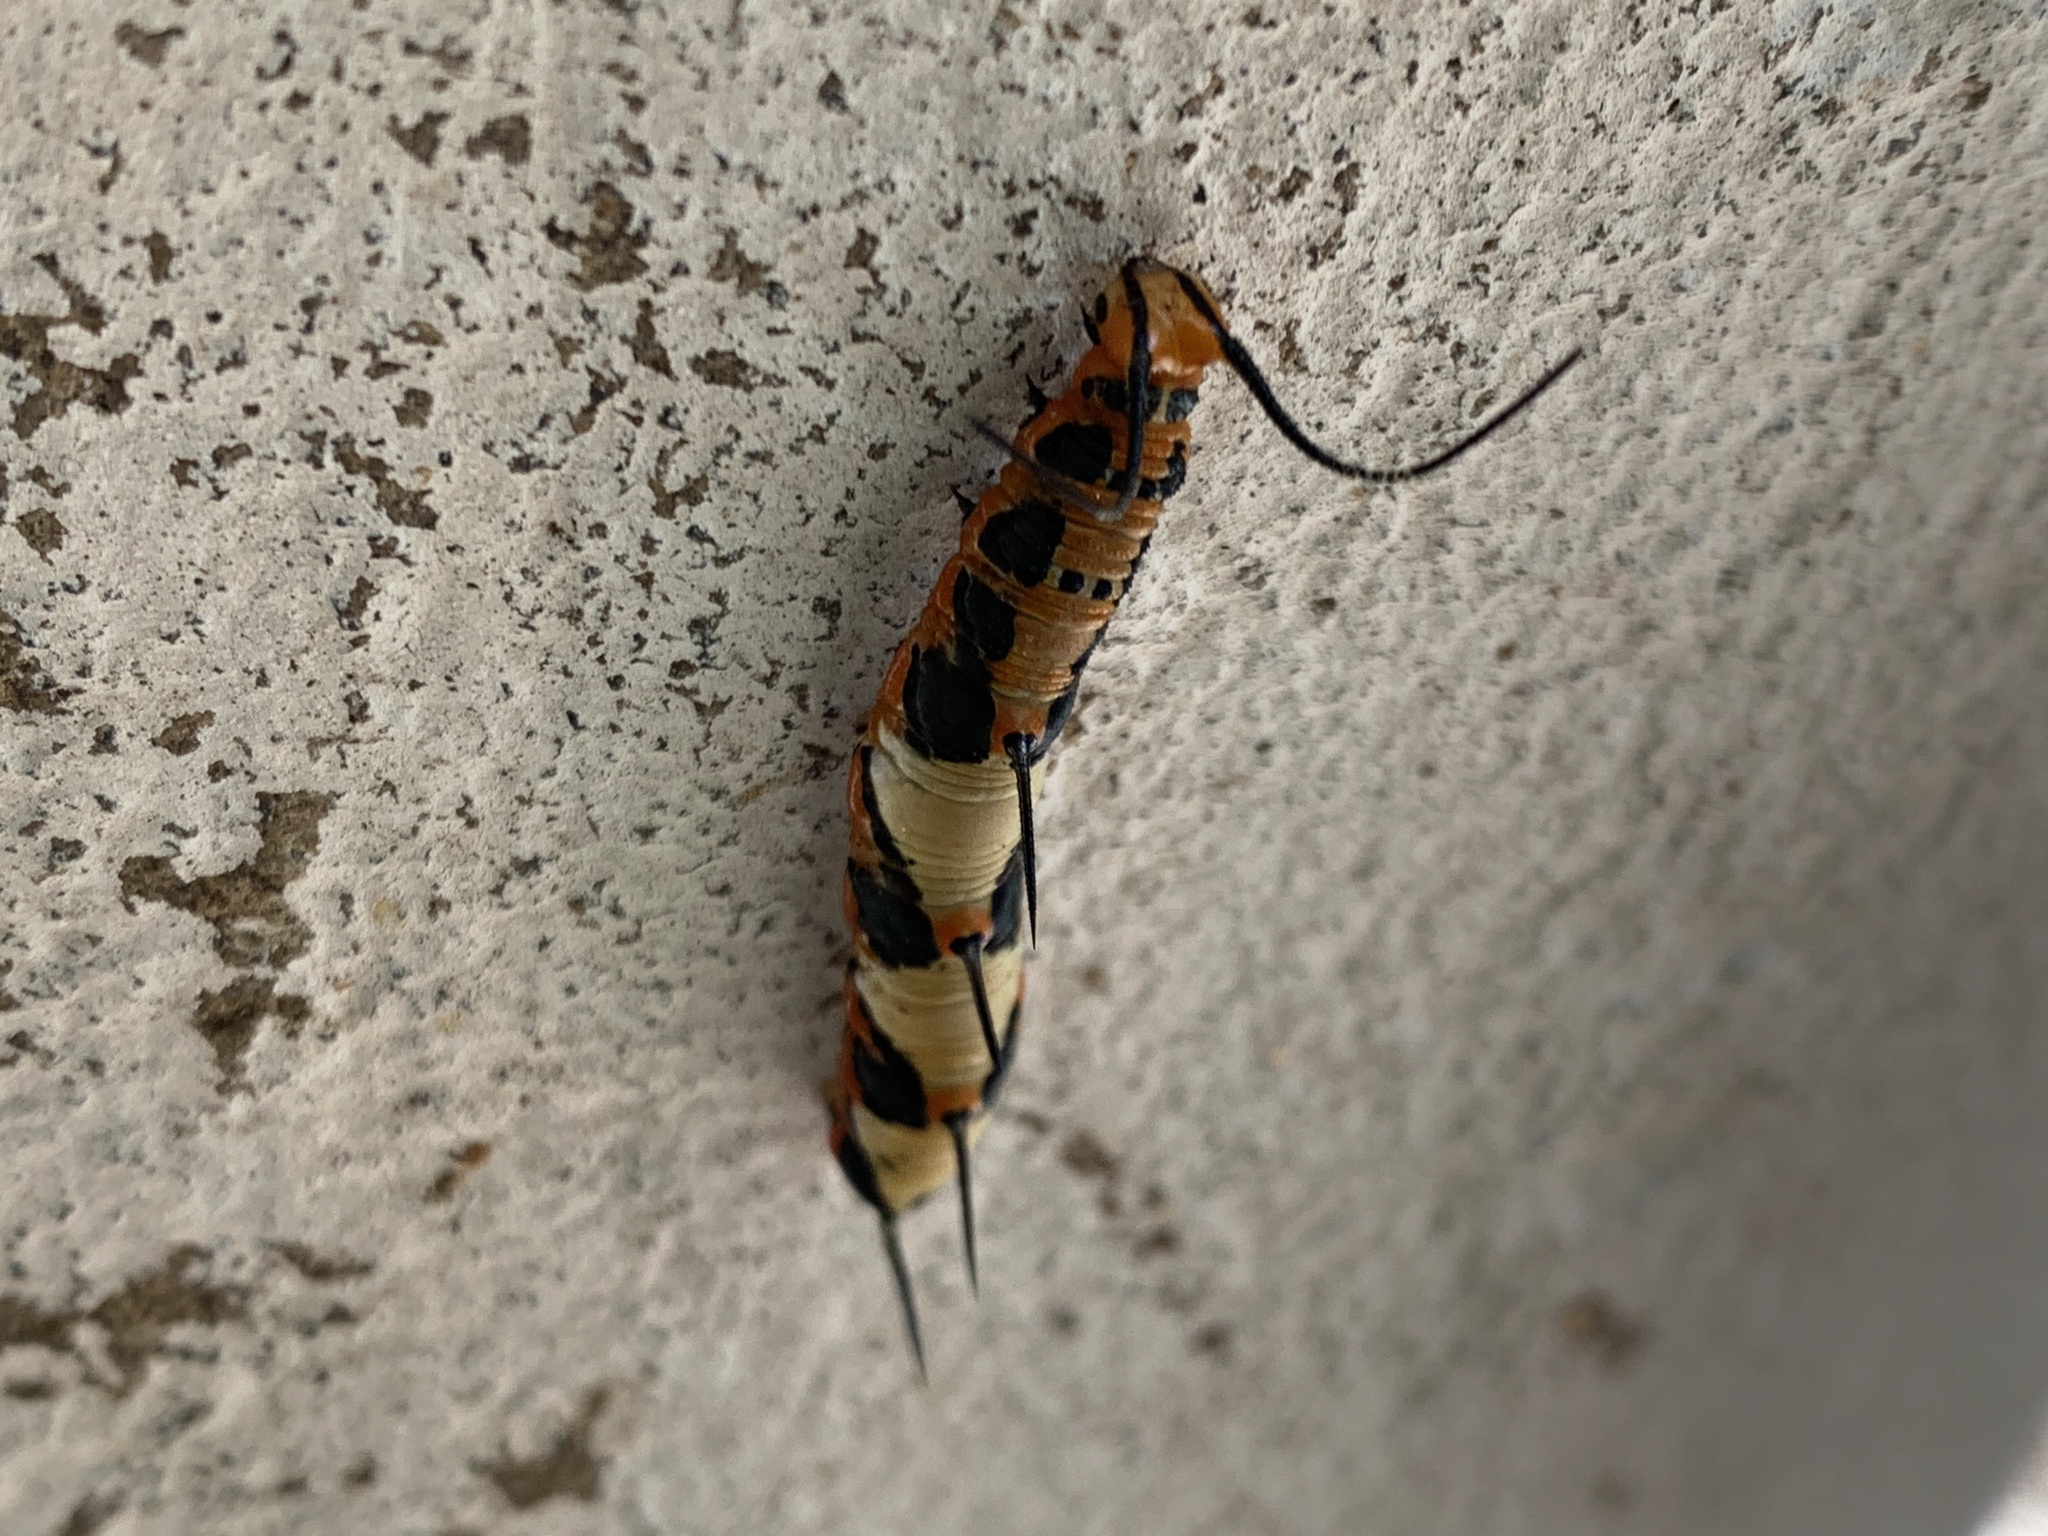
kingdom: Animalia
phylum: Arthropoda
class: Insecta
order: Lepidoptera
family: Nymphalidae
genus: Marpesia
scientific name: Marpesia petreus
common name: Red dagger wing
